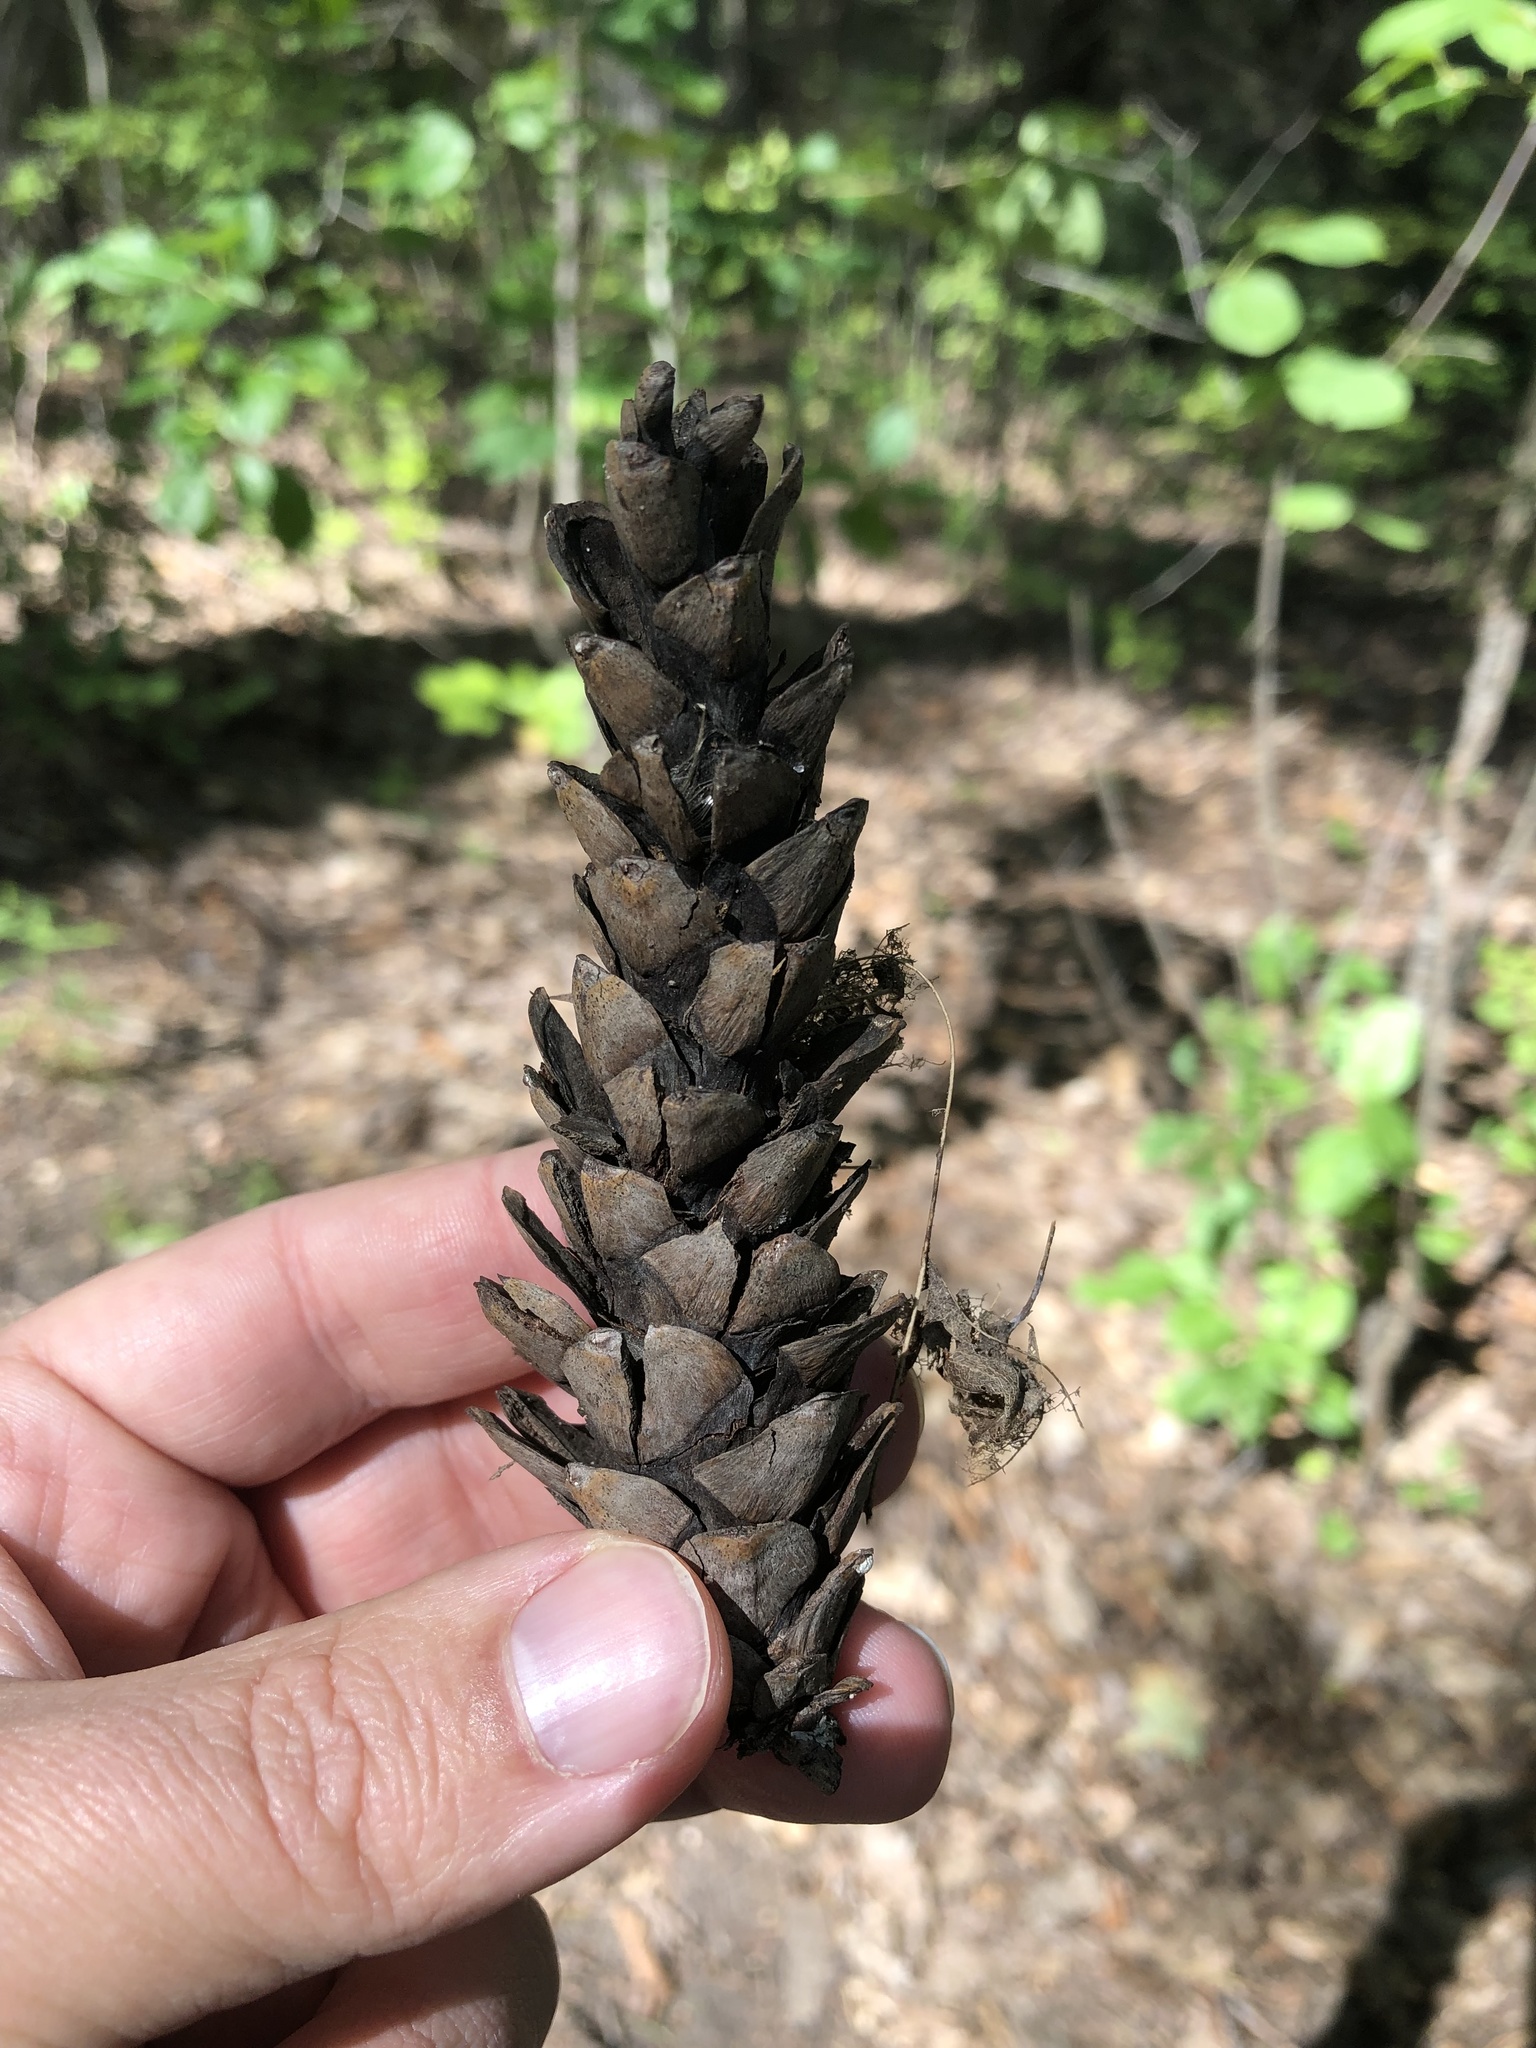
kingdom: Plantae
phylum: Tracheophyta
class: Pinopsida
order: Pinales
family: Pinaceae
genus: Pinus
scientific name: Pinus strobus
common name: Weymouth pine
